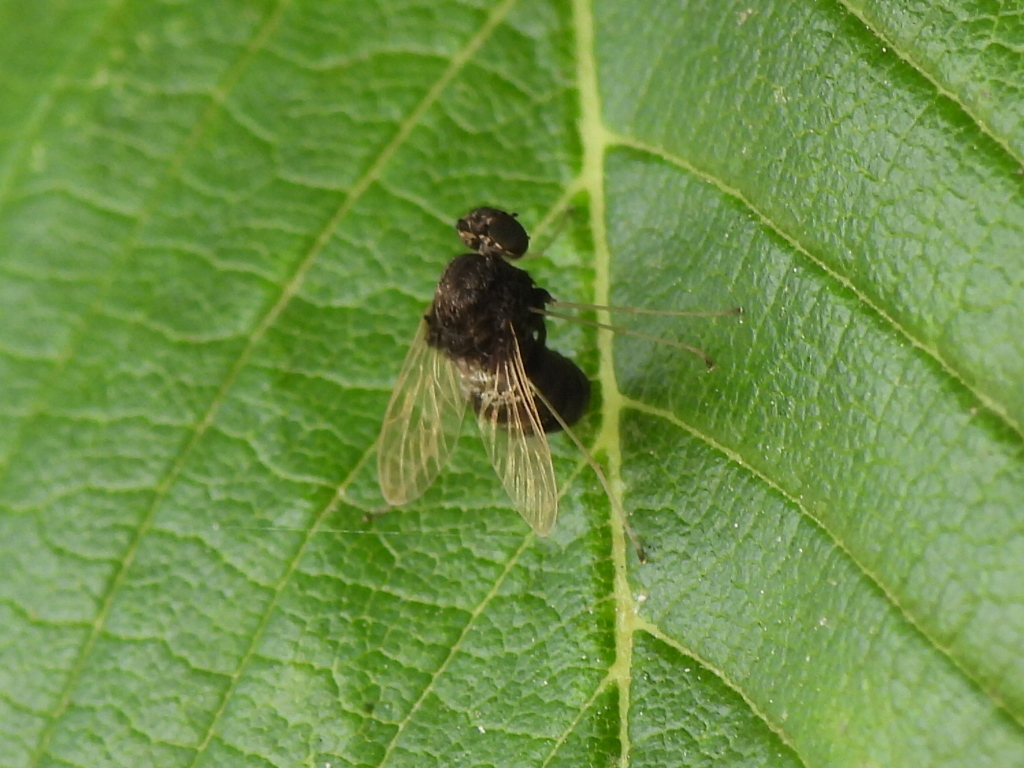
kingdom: Animalia
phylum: Arthropoda
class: Insecta
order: Diptera
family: Rhagionidae
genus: Chrysopilus
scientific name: Chrysopilus basilaris
